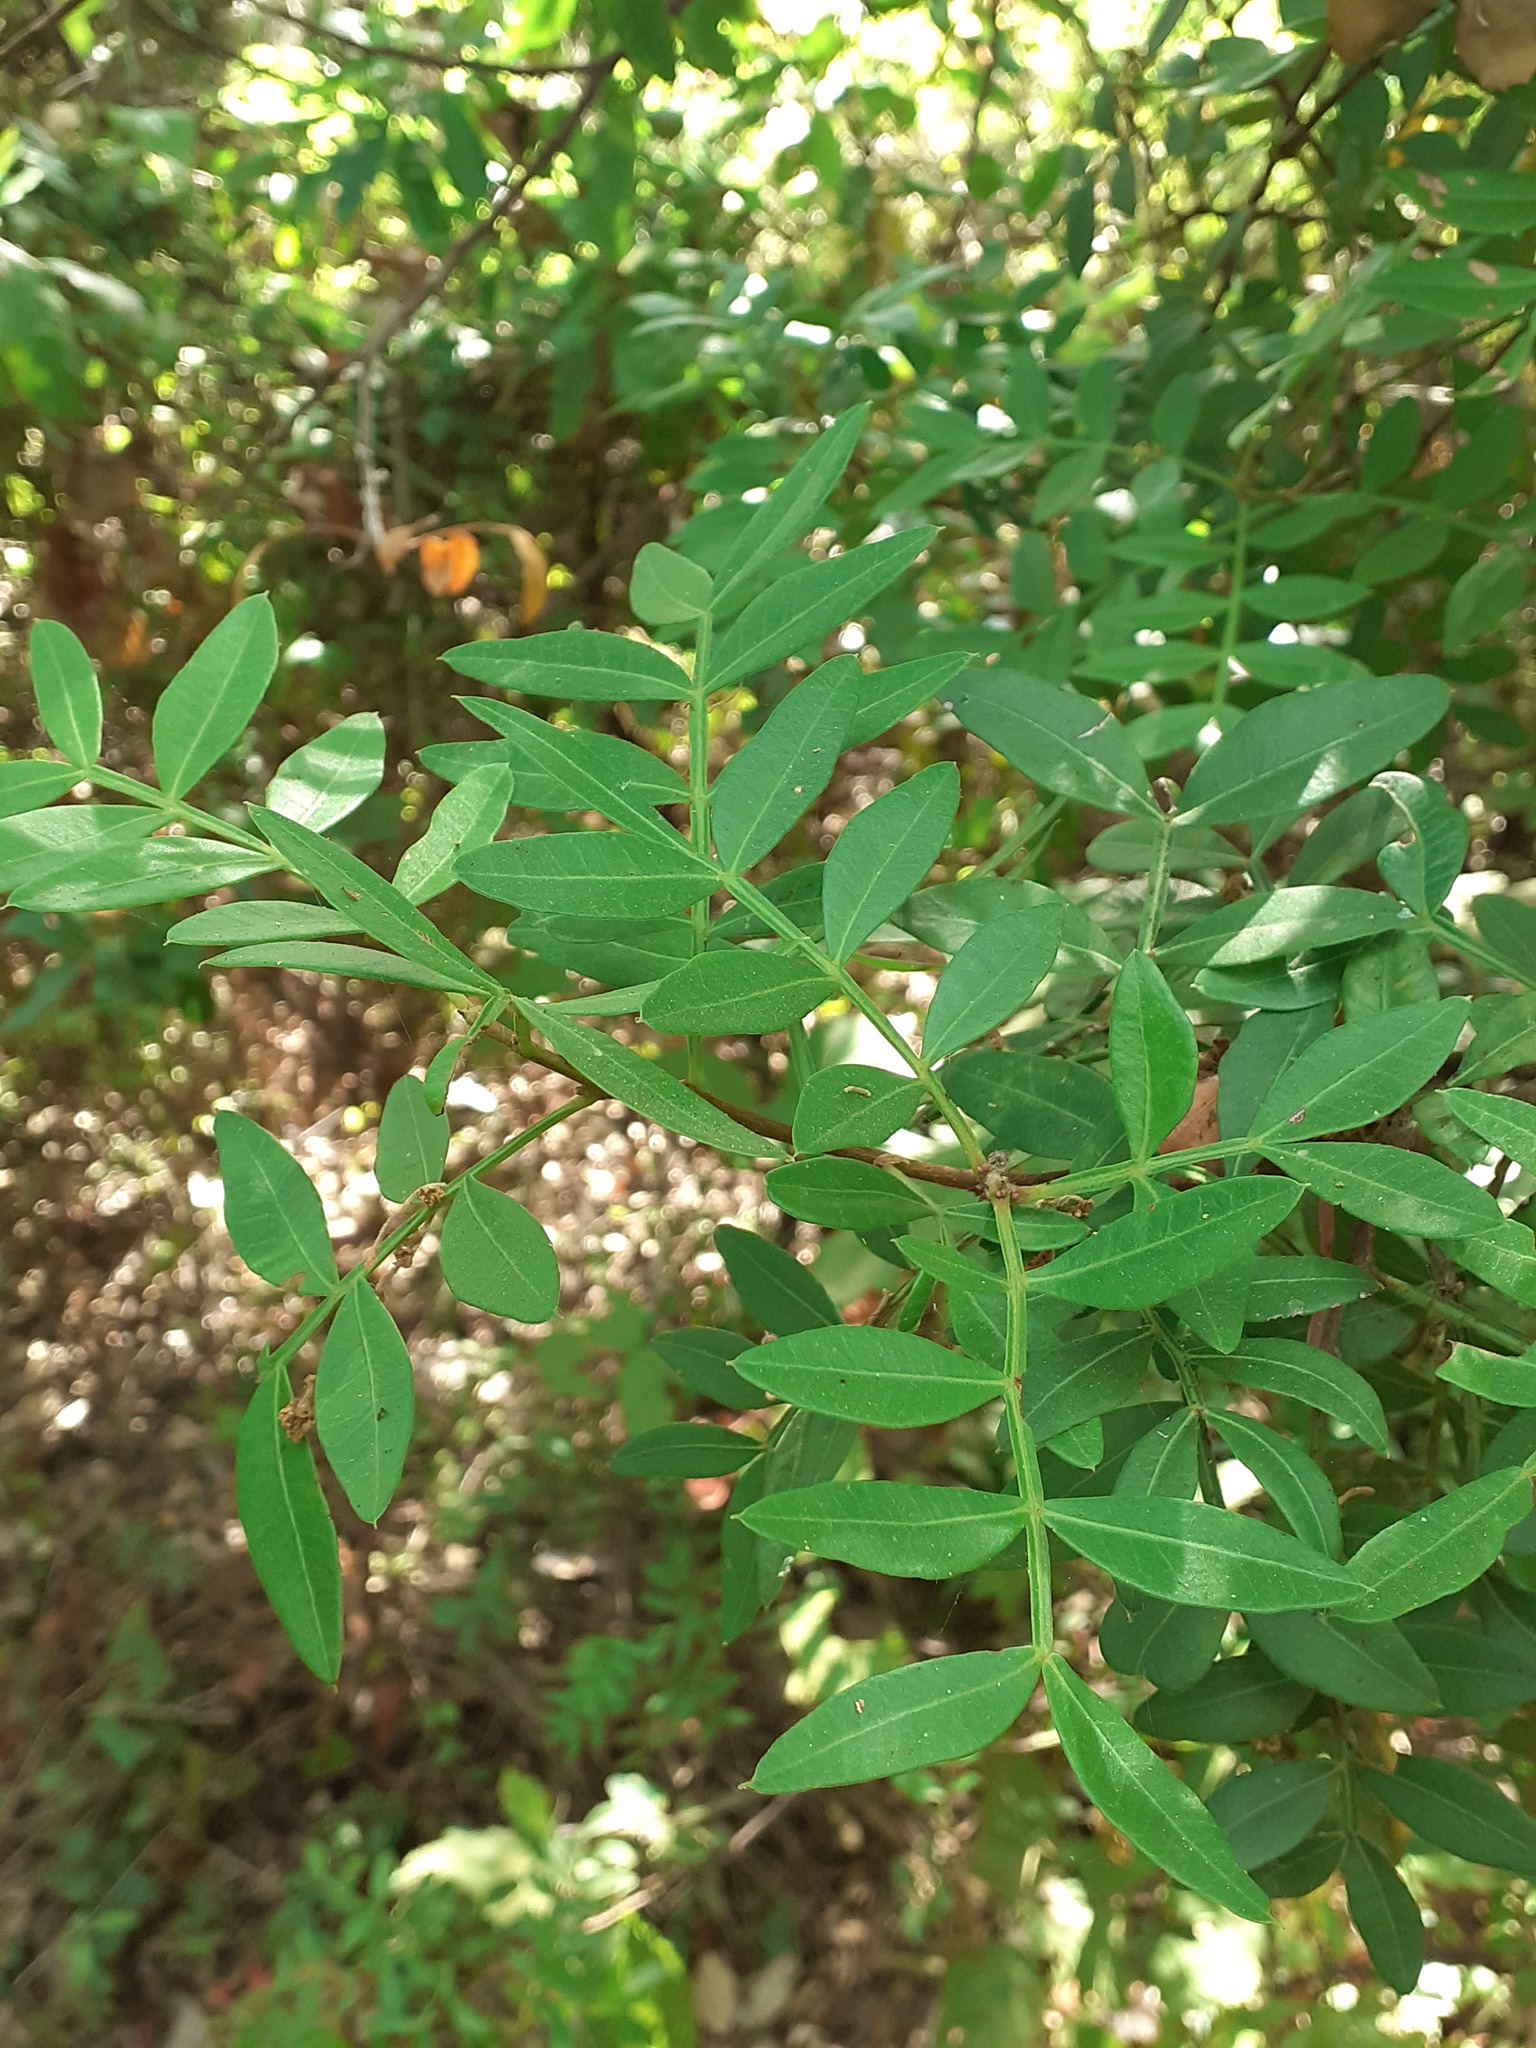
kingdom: Plantae
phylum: Tracheophyta
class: Magnoliopsida
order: Sapindales
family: Anacardiaceae
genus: Pistacia
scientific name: Pistacia lentiscus
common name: Lentisk
